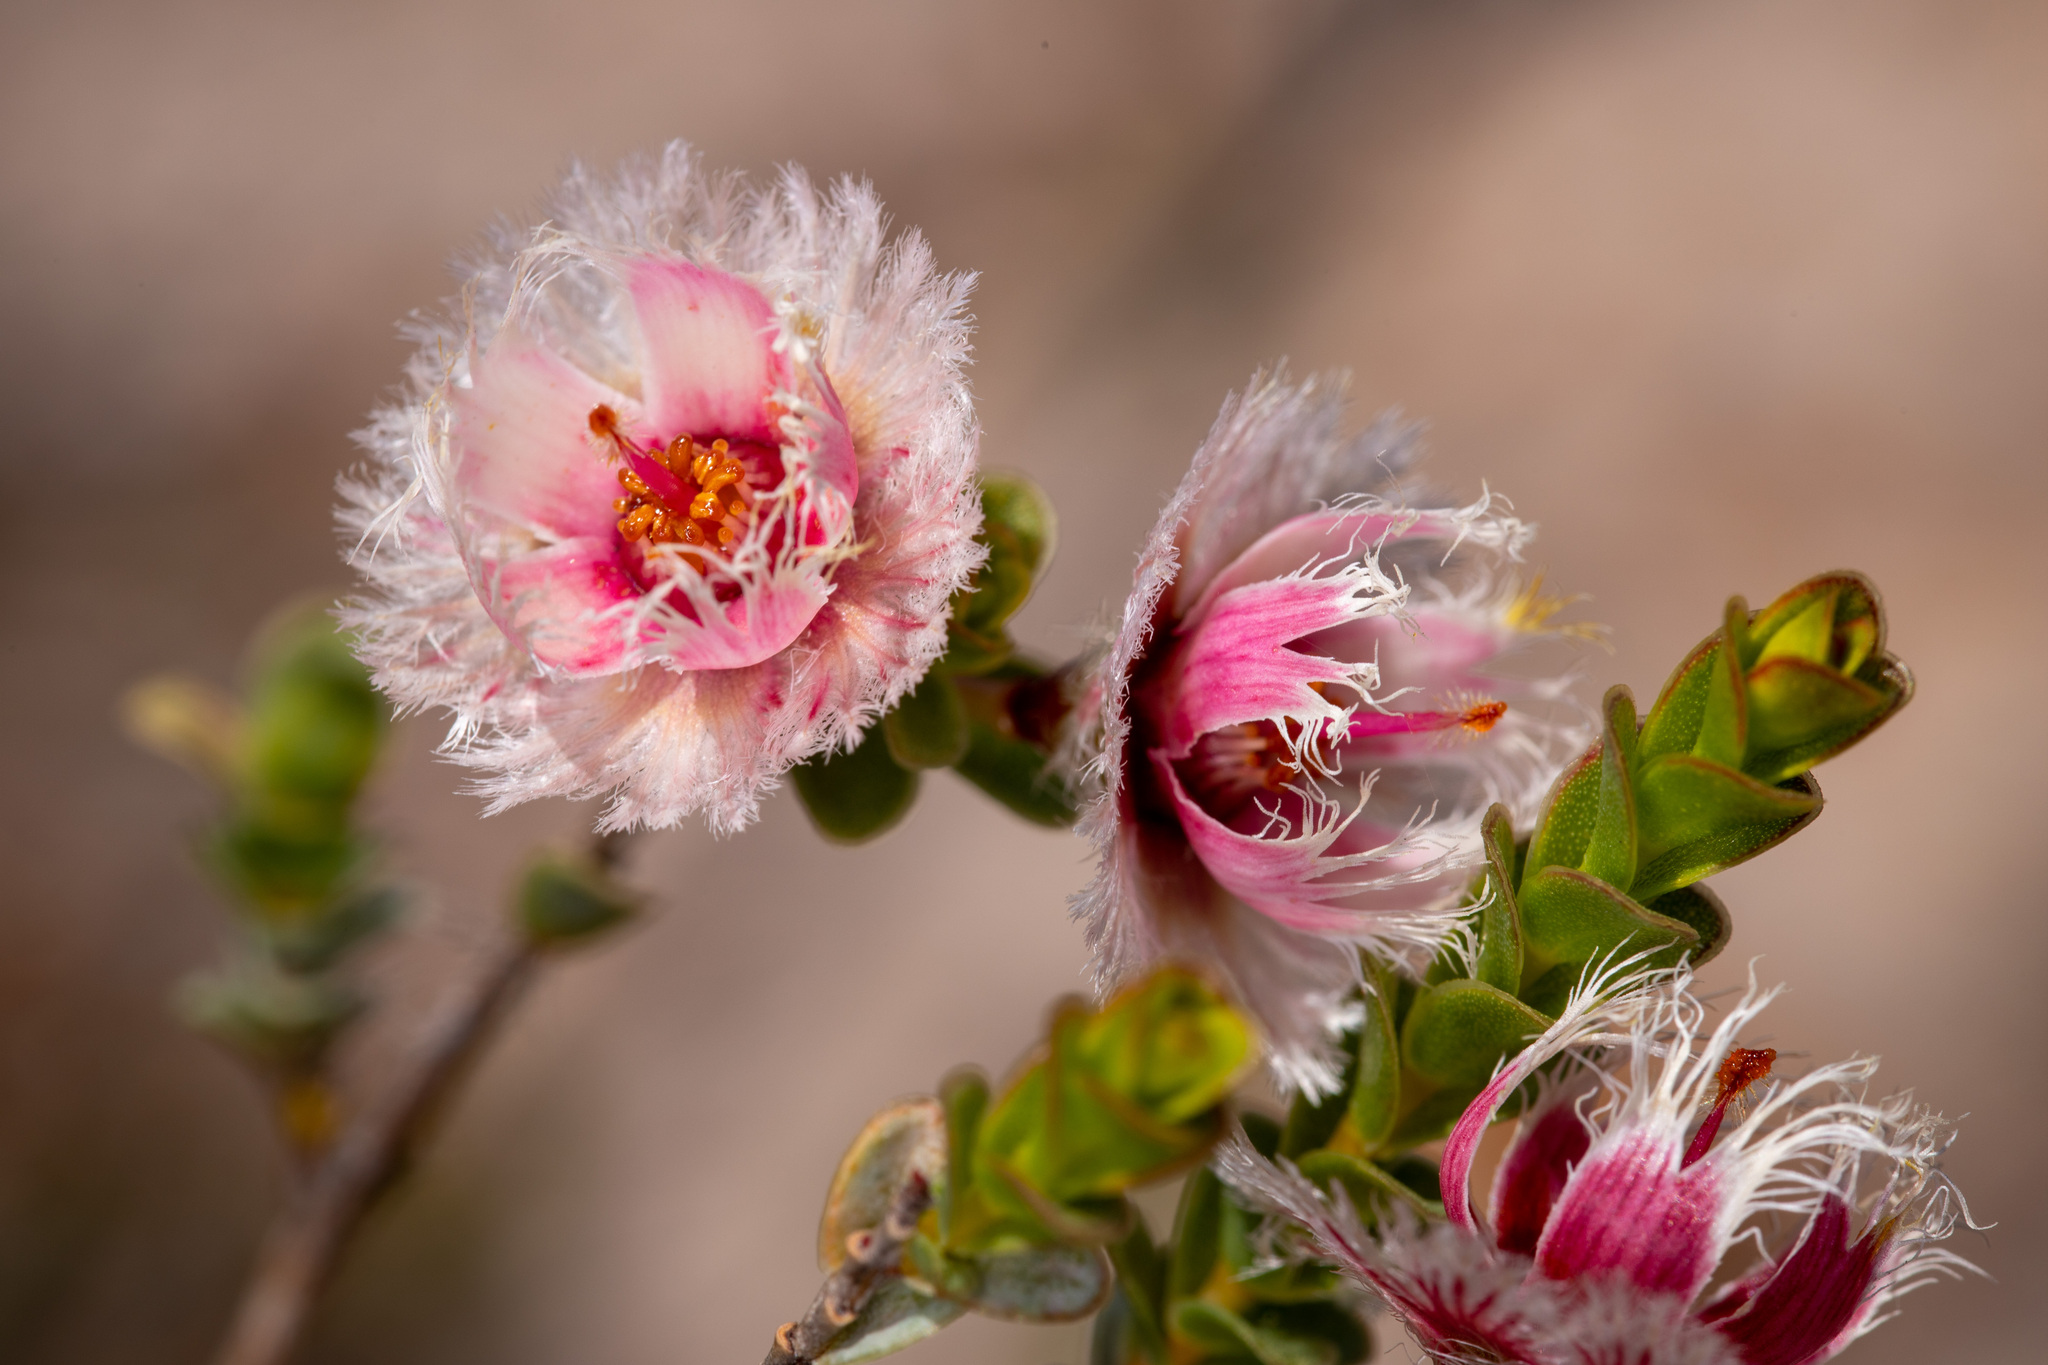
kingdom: Plantae
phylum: Tracheophyta
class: Magnoliopsida
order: Myrtales
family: Myrtaceae
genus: Verticordia
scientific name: Verticordia ovalifolia
